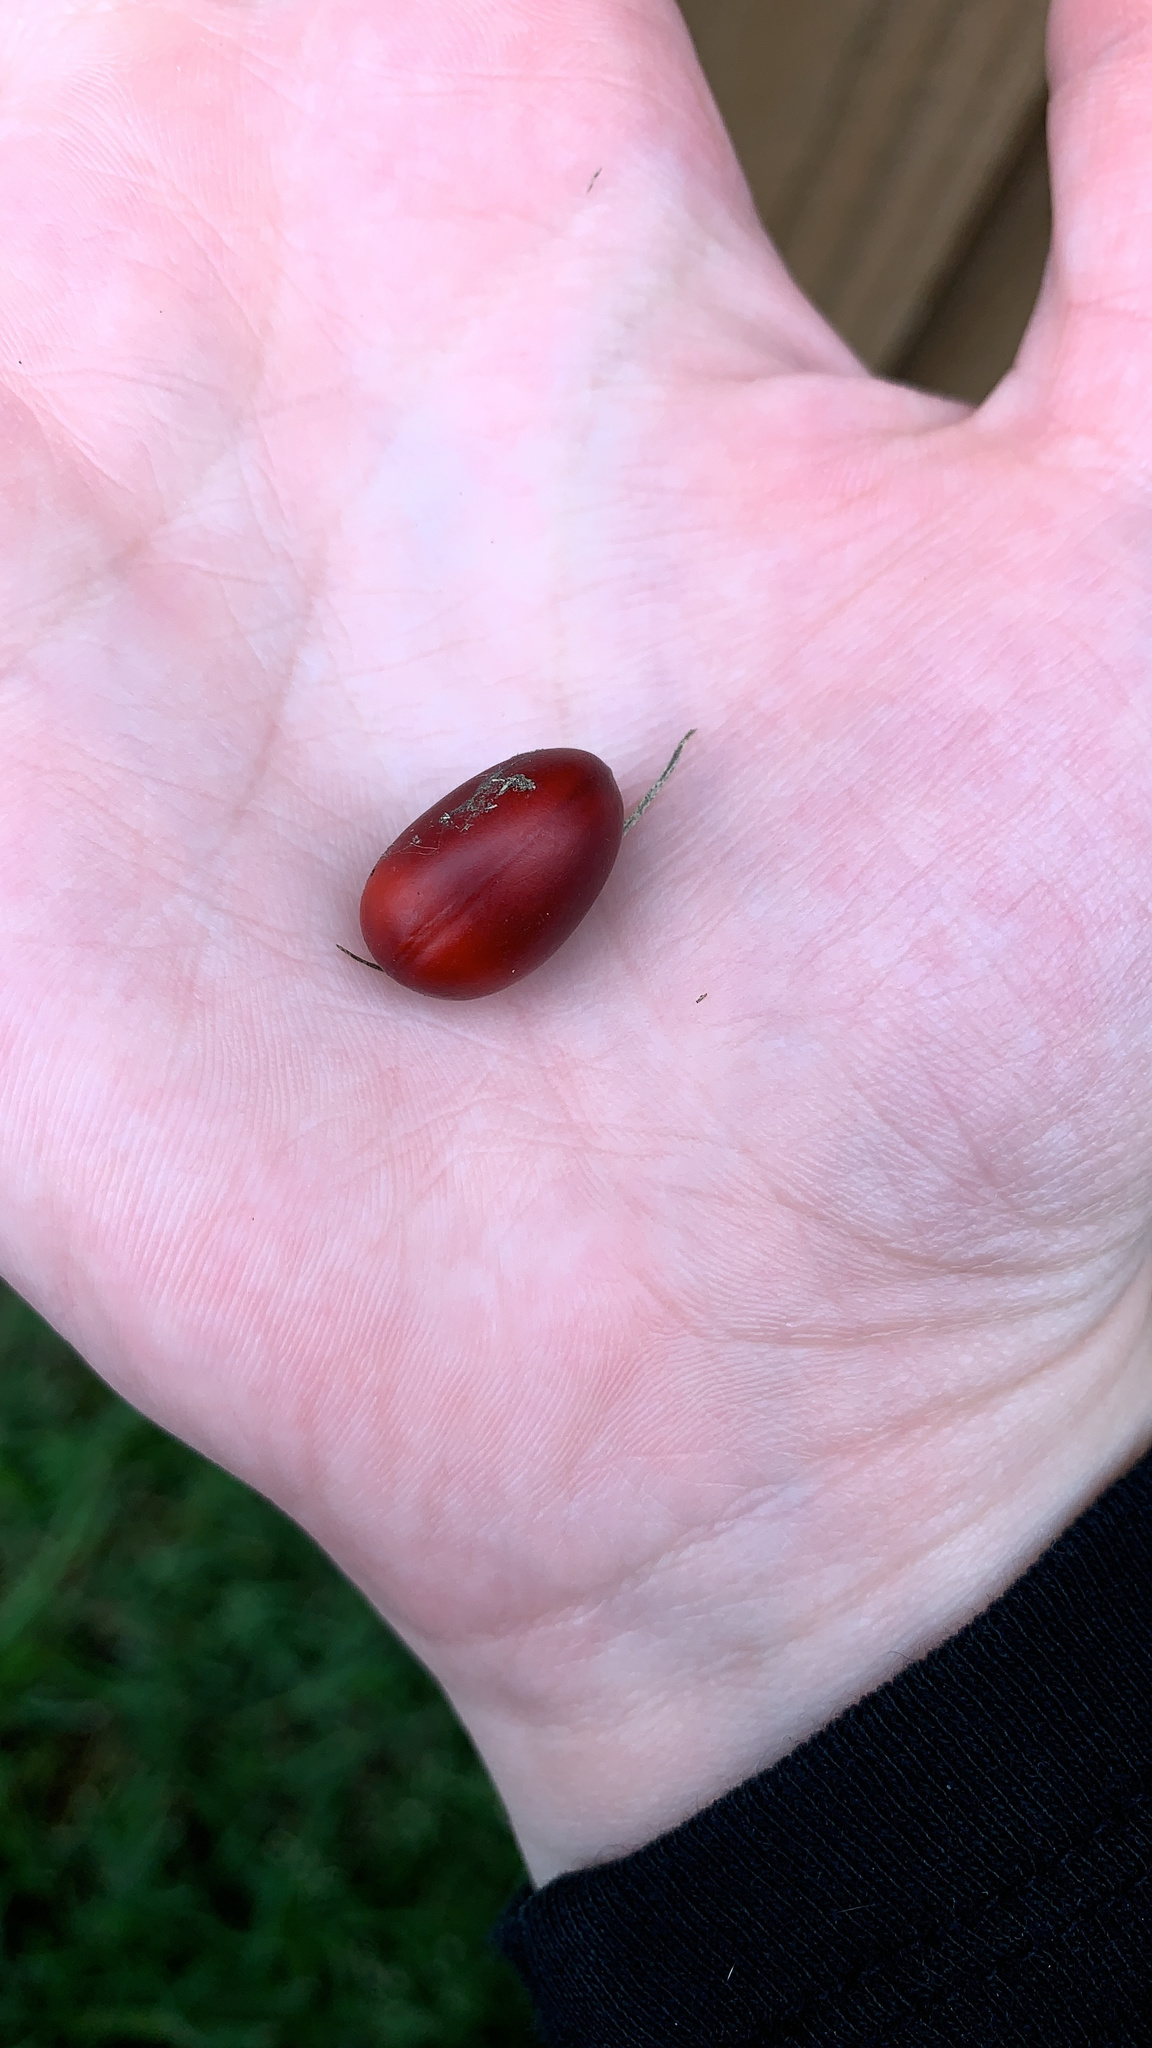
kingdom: Plantae
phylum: Tracheophyta
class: Magnoliopsida
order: Fabales
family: Fabaceae
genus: Dermatophyllum
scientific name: Dermatophyllum secundiflorum
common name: Texas-mountain-laurel
